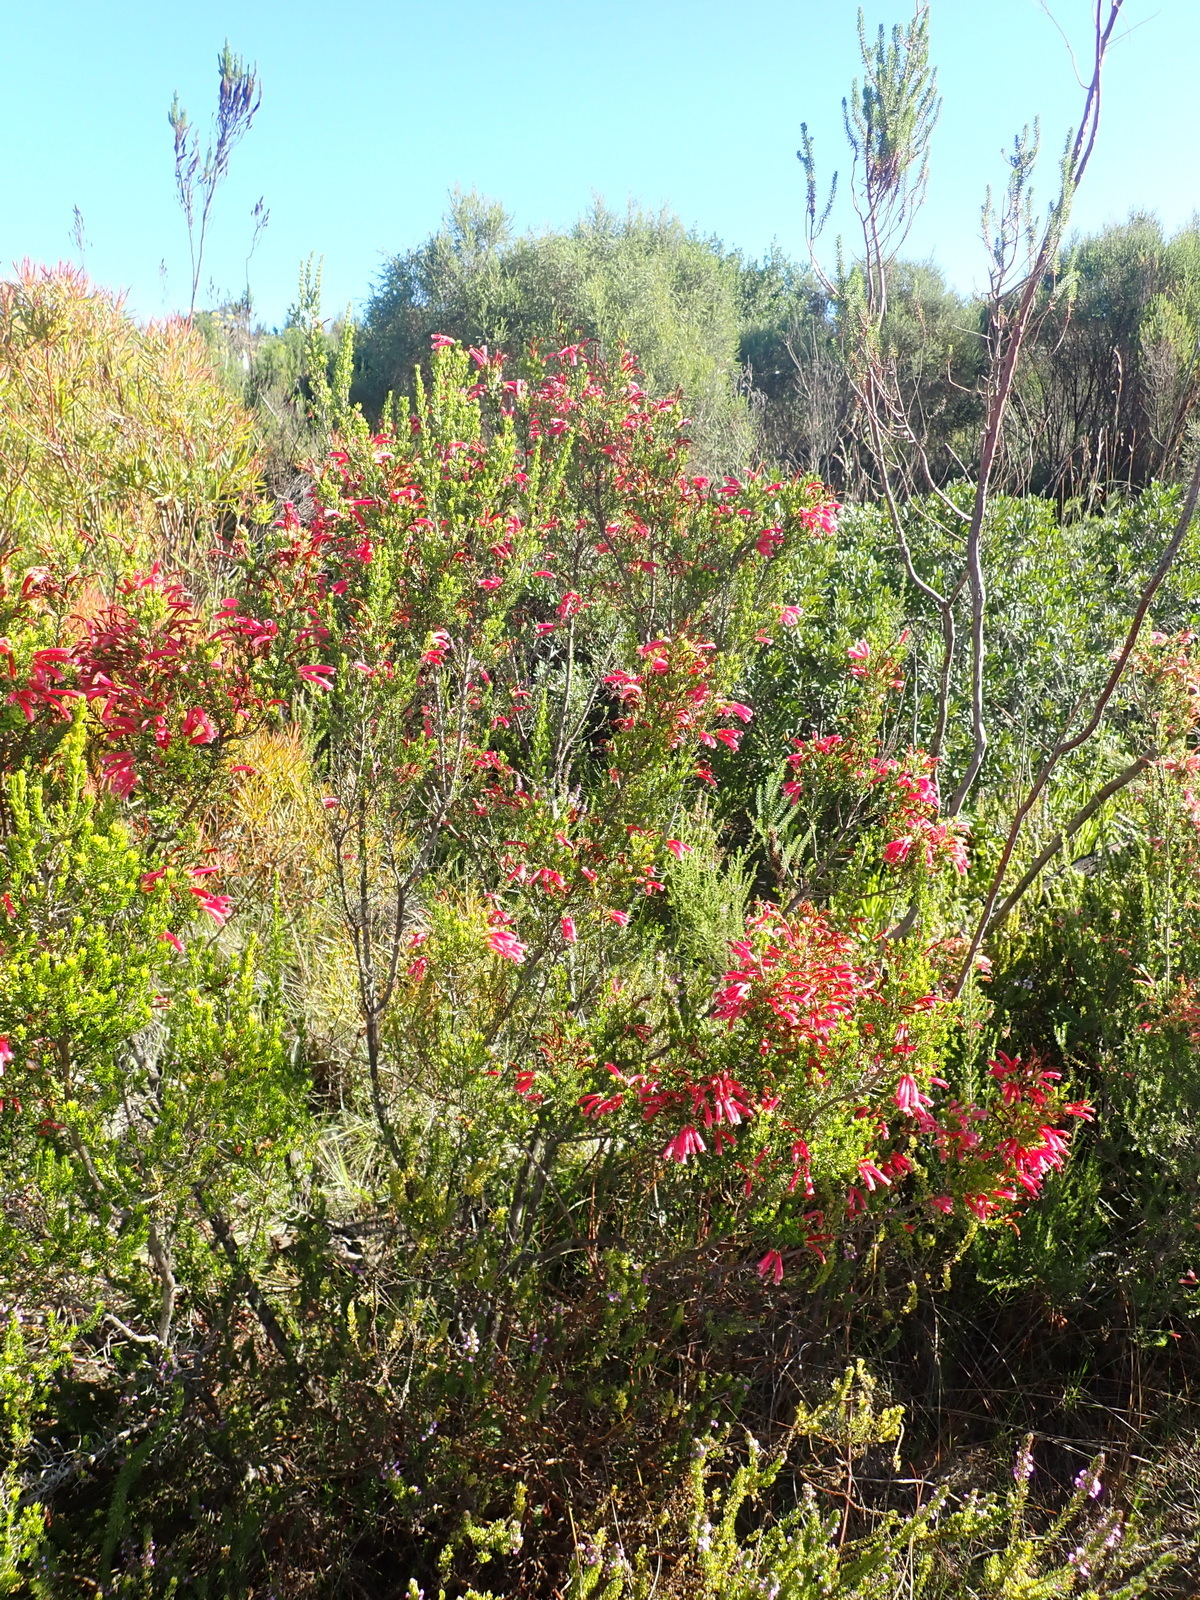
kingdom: Plantae
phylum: Tracheophyta
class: Magnoliopsida
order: Ericales
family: Ericaceae
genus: Erica
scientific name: Erica discolor
